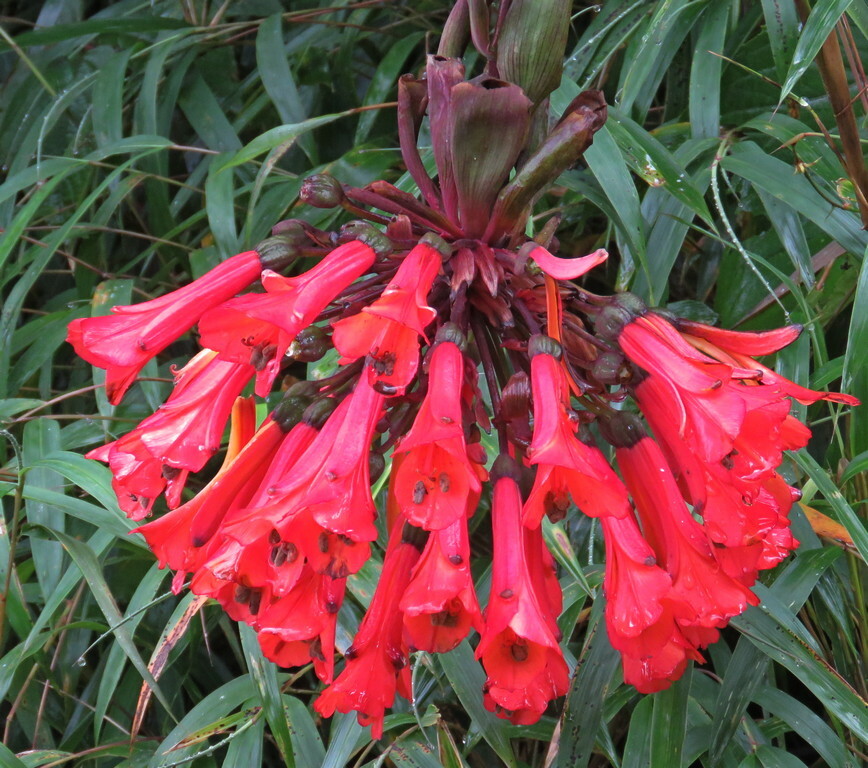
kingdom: Plantae
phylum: Tracheophyta
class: Liliopsida
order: Liliales
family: Alstroemeriaceae
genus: Bomarea
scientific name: Bomarea hirsuta
